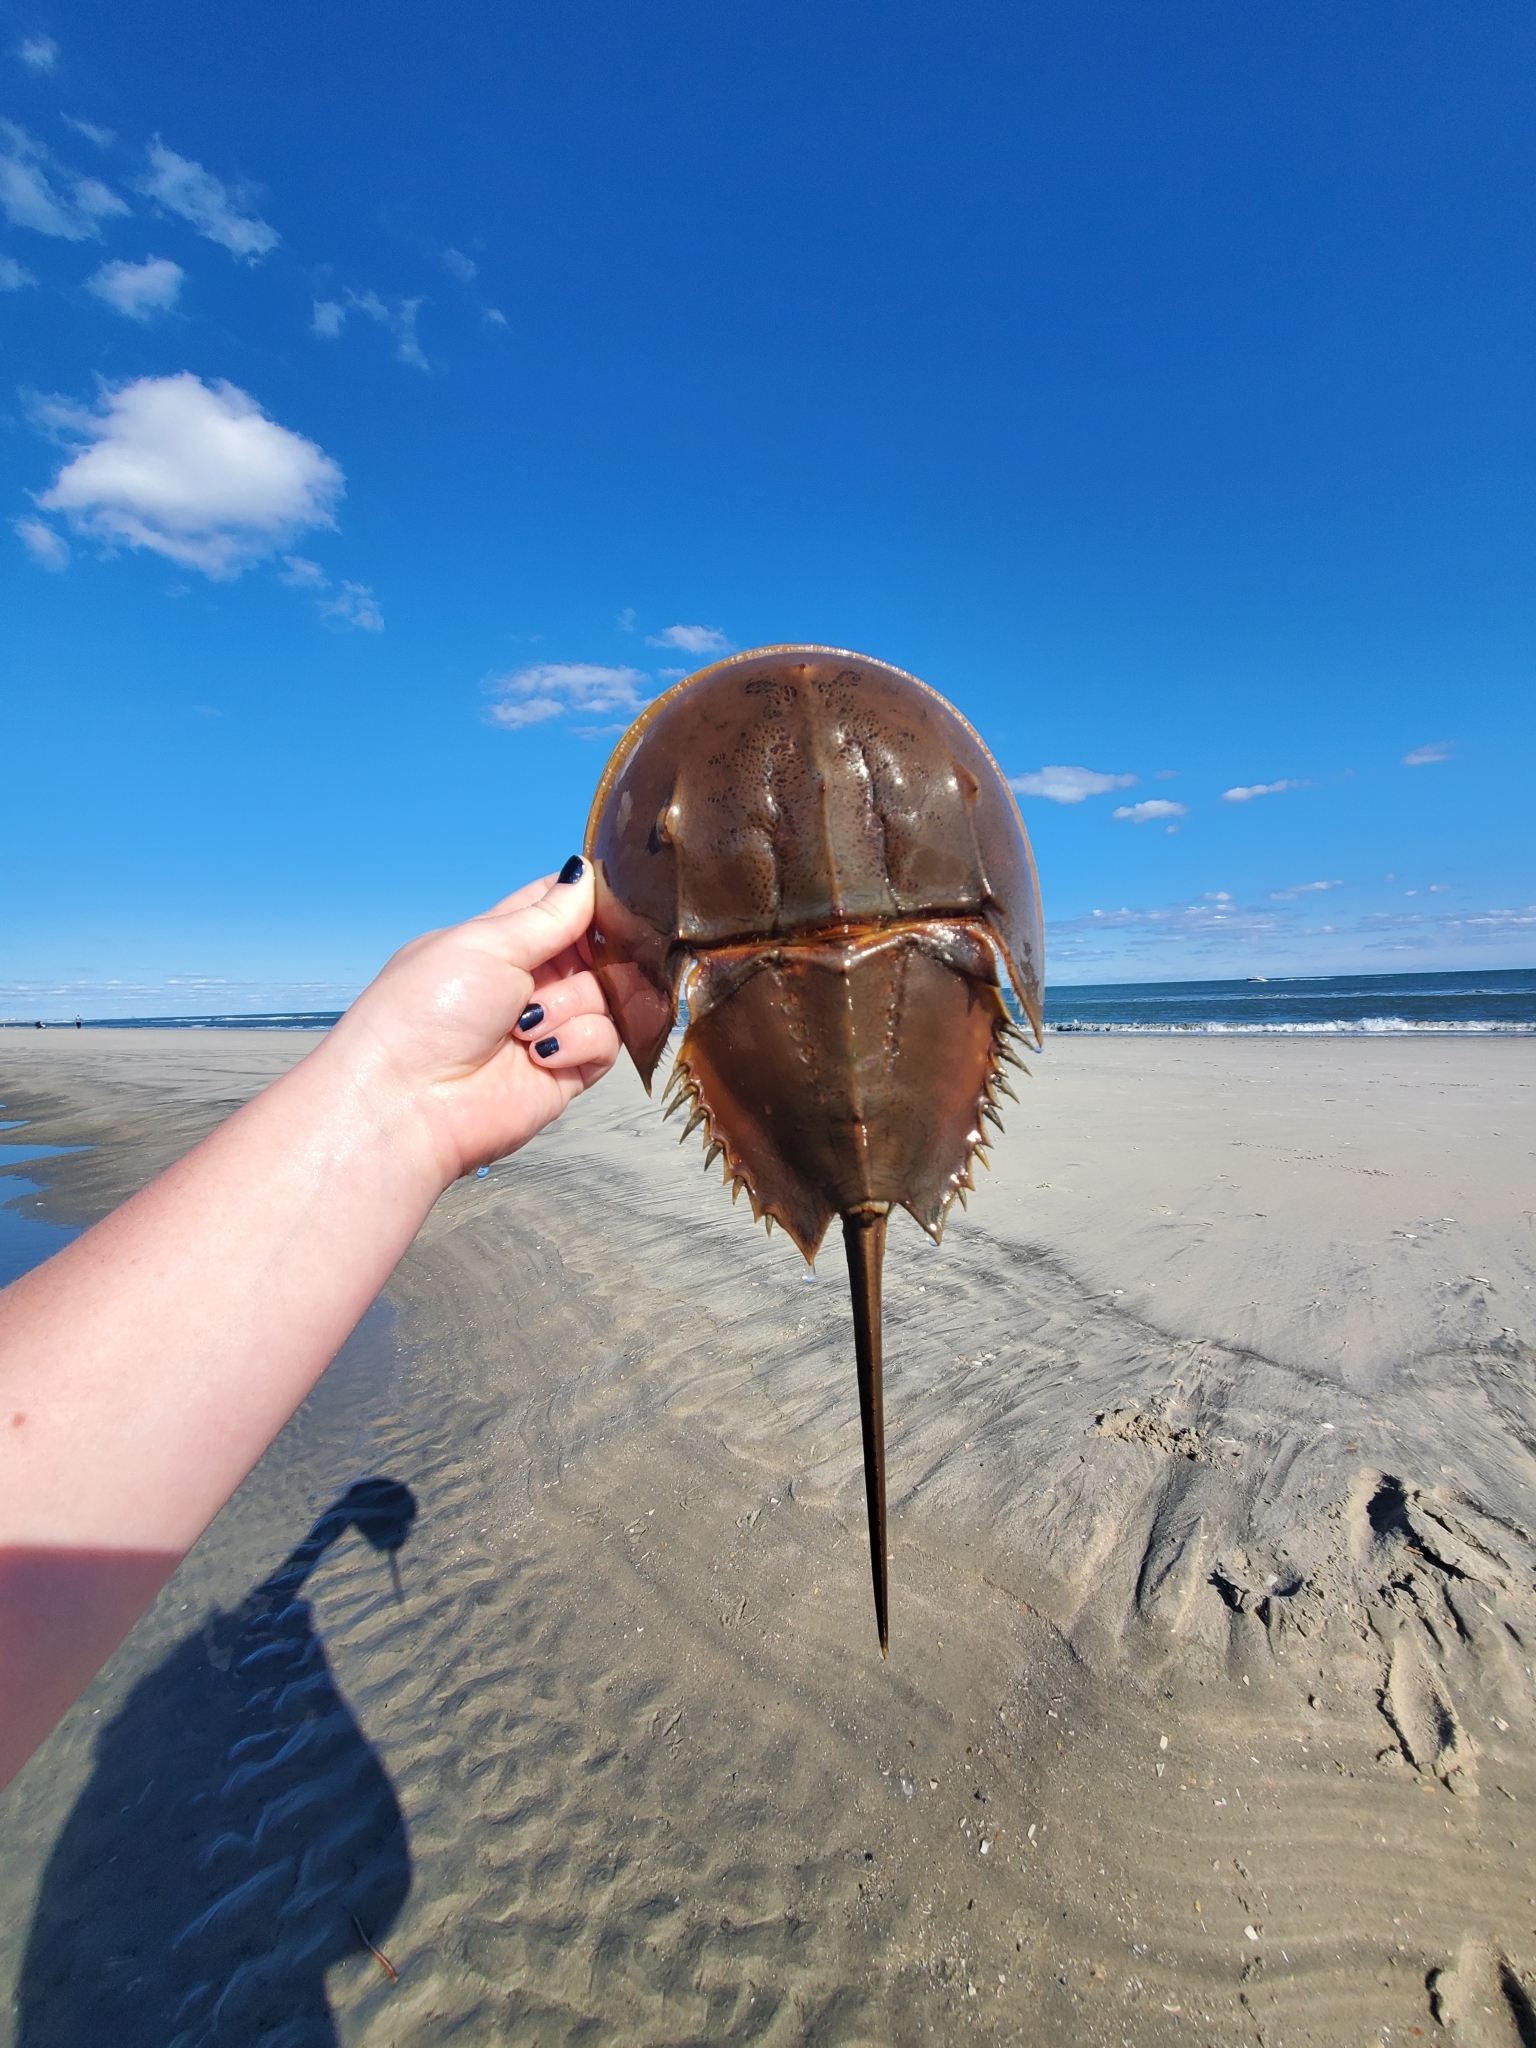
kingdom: Animalia
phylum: Arthropoda
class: Merostomata
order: Xiphosurida
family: Limulidae
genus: Limulus
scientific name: Limulus polyphemus
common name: Horseshoe crab
